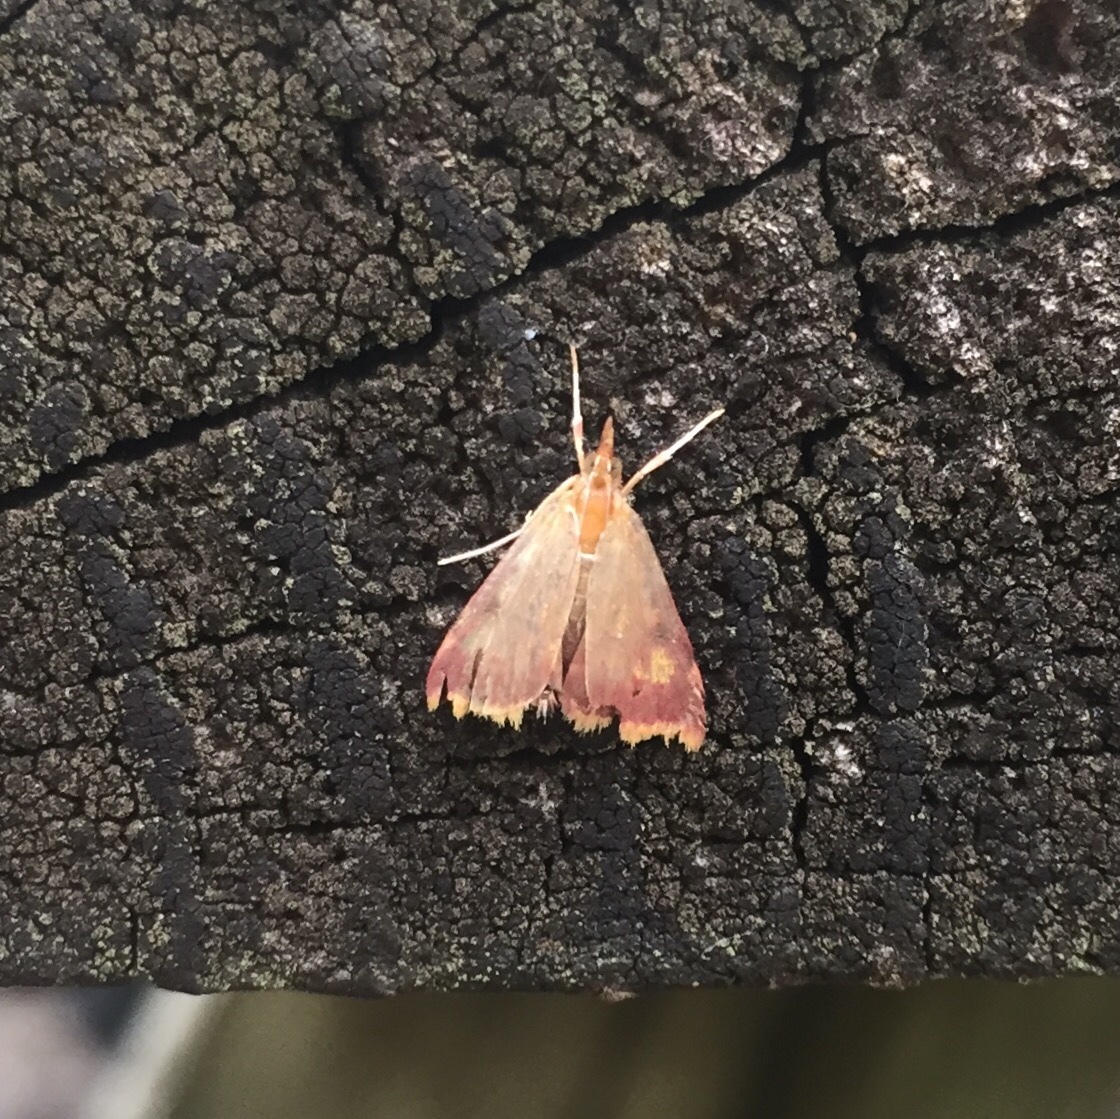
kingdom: Animalia
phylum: Arthropoda
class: Insecta
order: Lepidoptera
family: Crambidae
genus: Pyrausta
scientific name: Pyrausta acrionalis
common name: Mint-loving pyrausta moth
